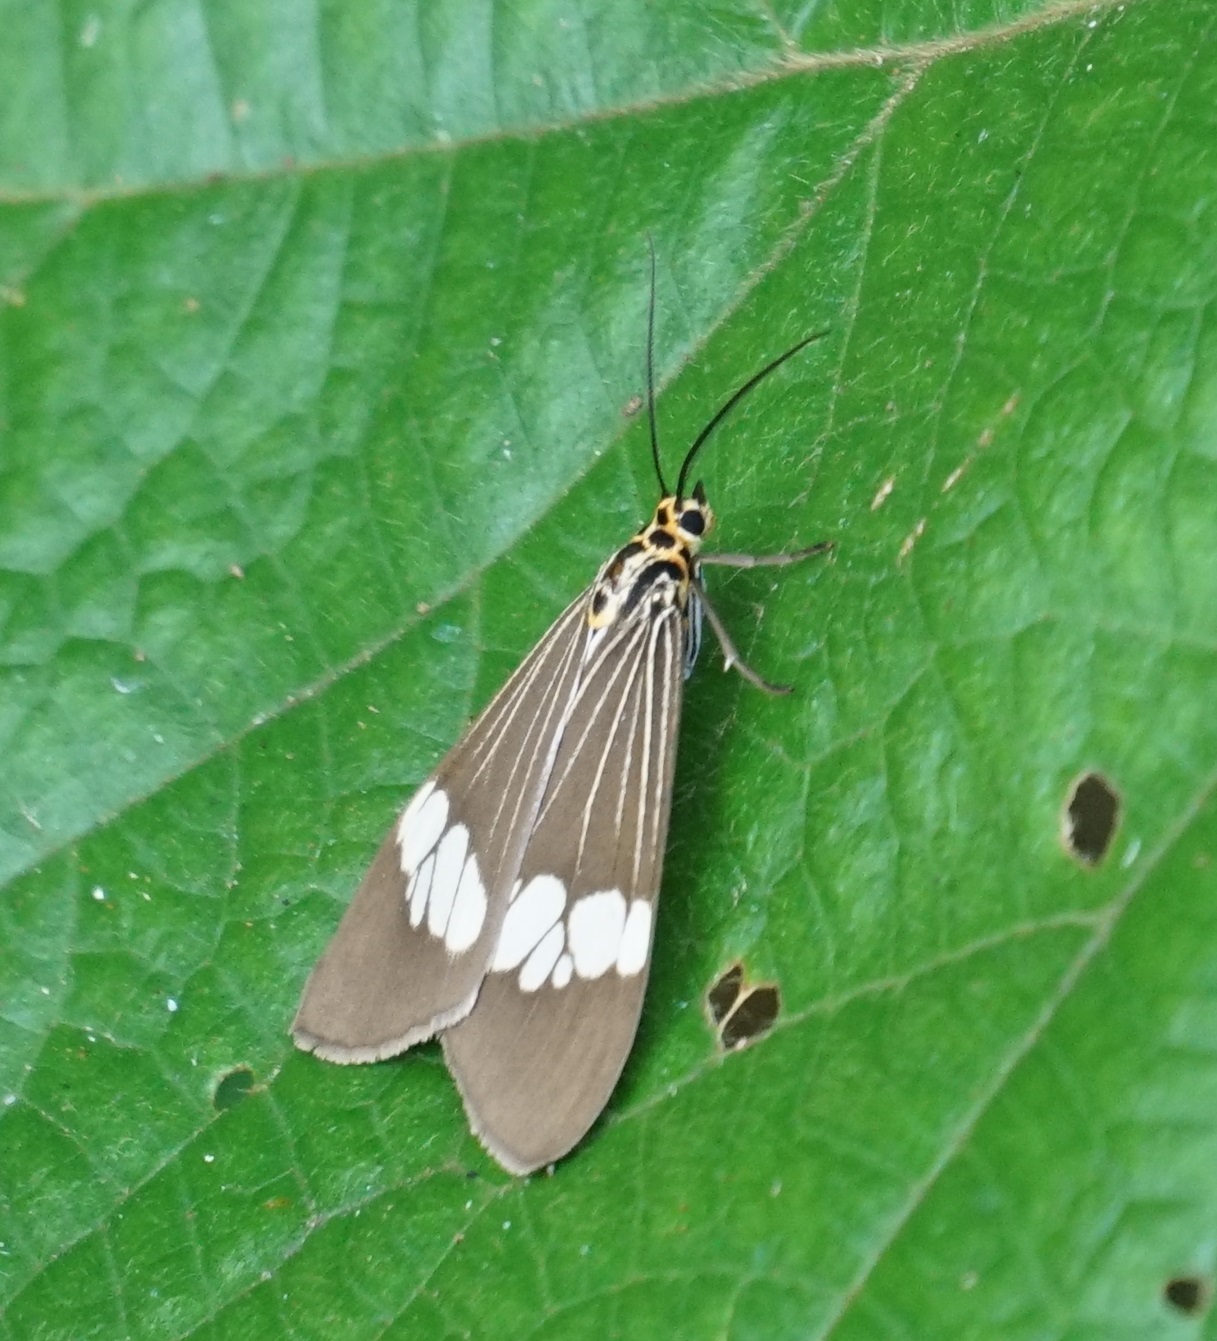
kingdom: Animalia
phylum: Arthropoda
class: Insecta
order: Lepidoptera
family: Erebidae
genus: Nyctemera
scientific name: Nyctemera baulus
